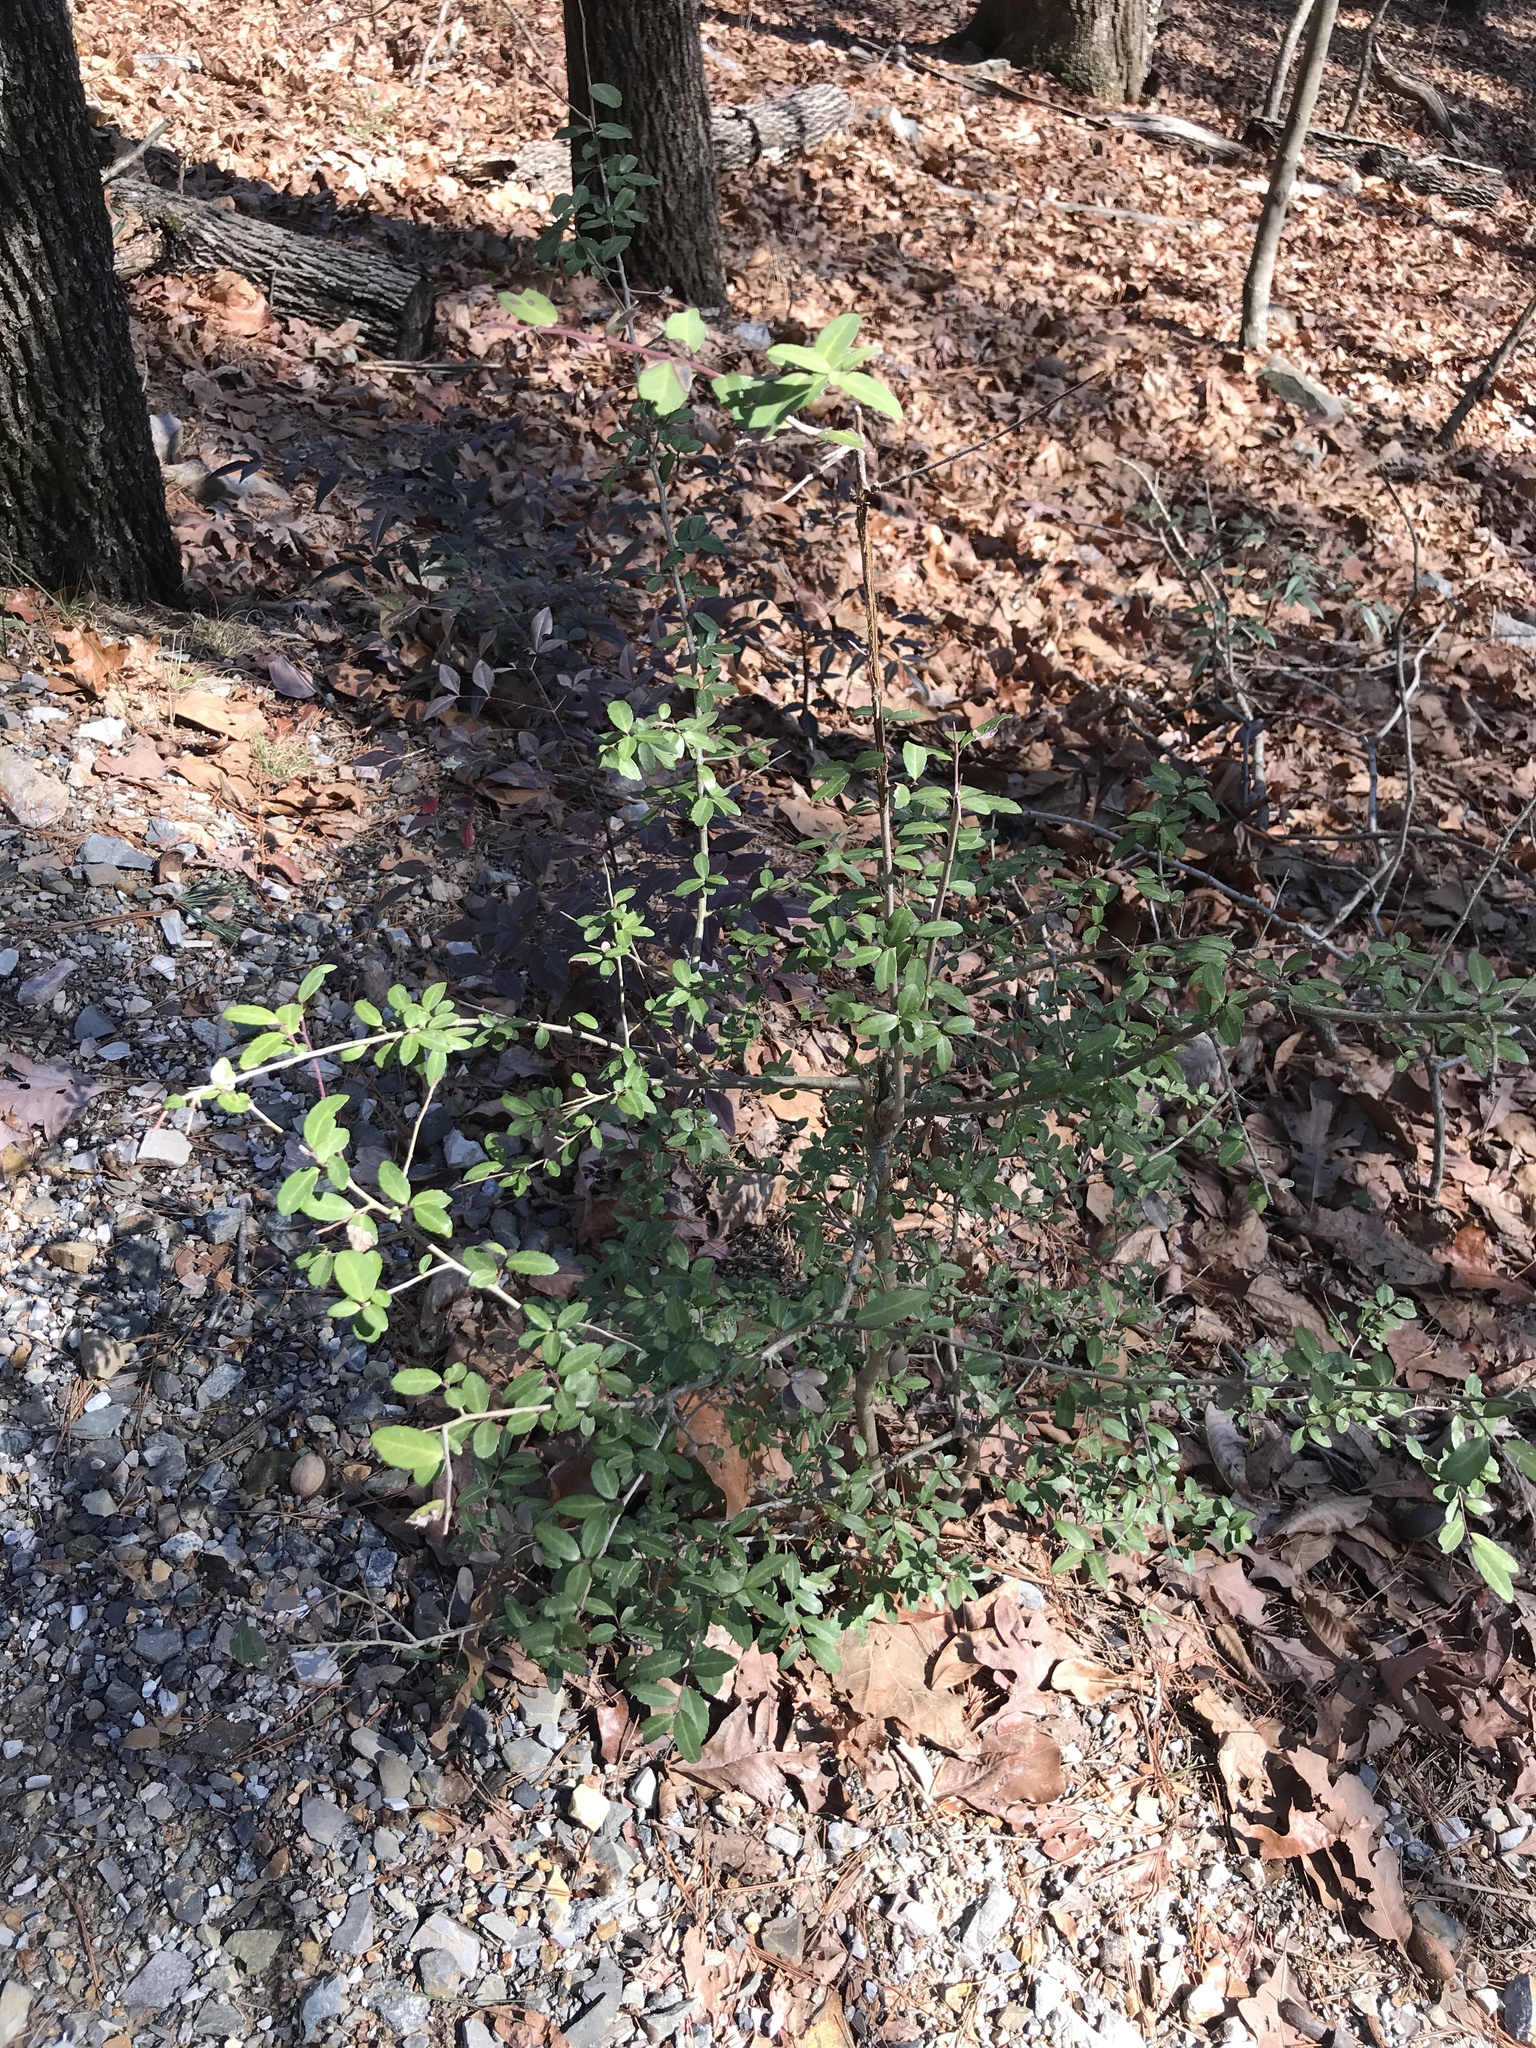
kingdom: Plantae
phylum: Tracheophyta
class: Magnoliopsida
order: Aquifoliales
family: Aquifoliaceae
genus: Ilex
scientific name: Ilex vomitoria
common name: Yaupon holly
